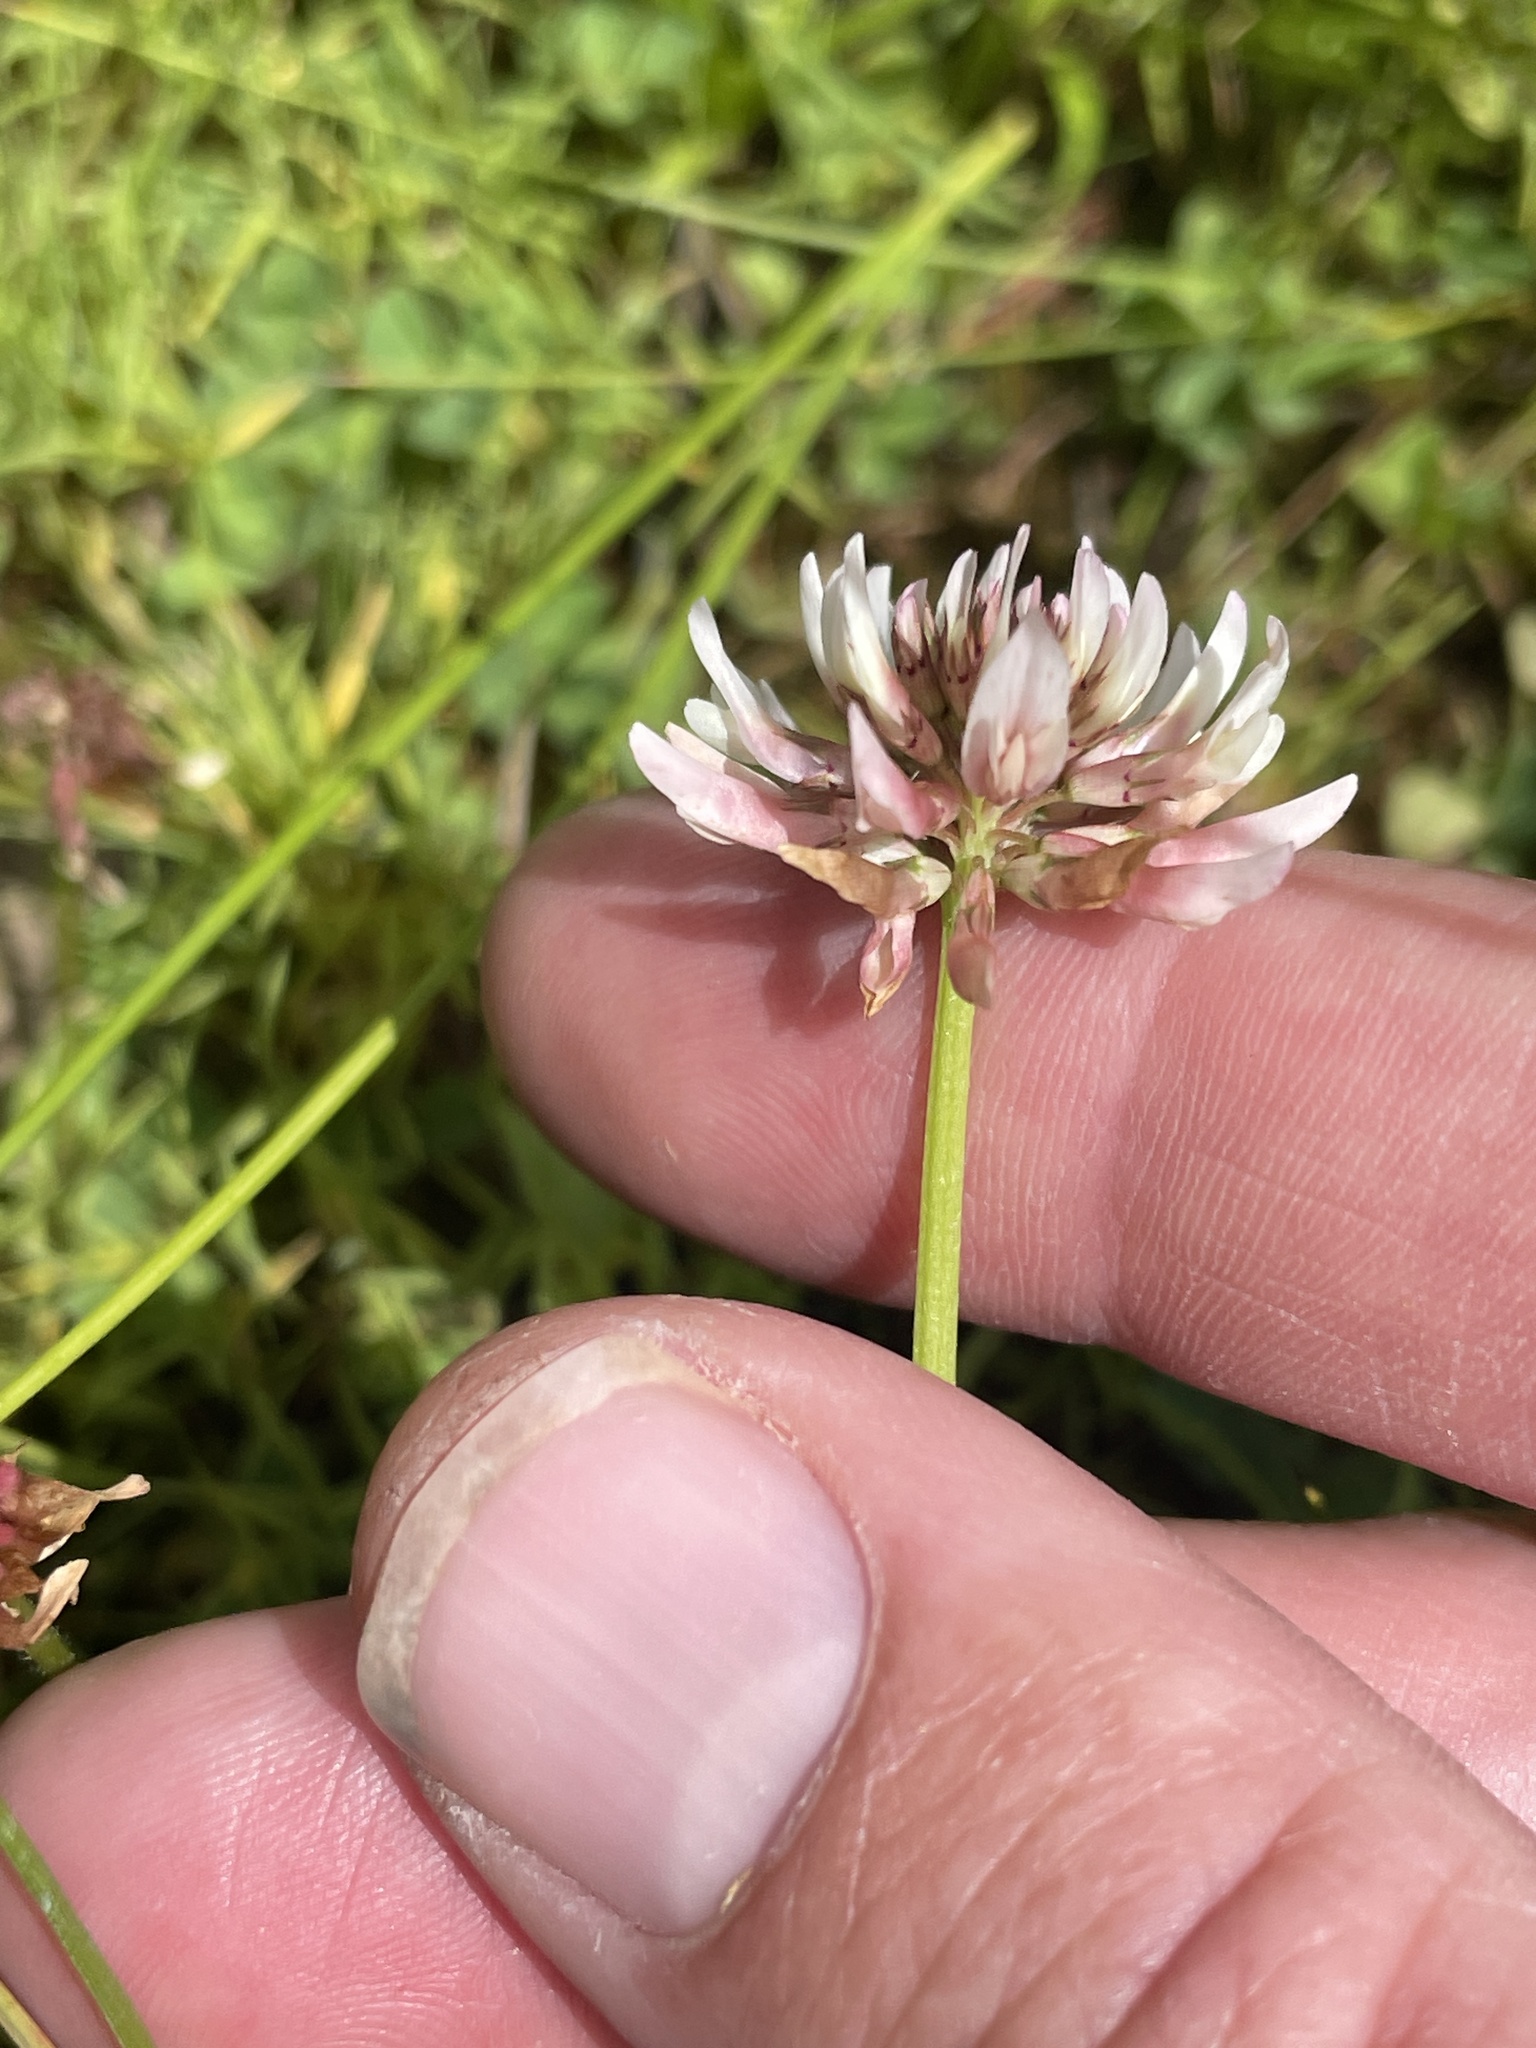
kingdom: Plantae
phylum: Tracheophyta
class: Magnoliopsida
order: Fabales
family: Fabaceae
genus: Trifolium
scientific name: Trifolium repens
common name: White clover
